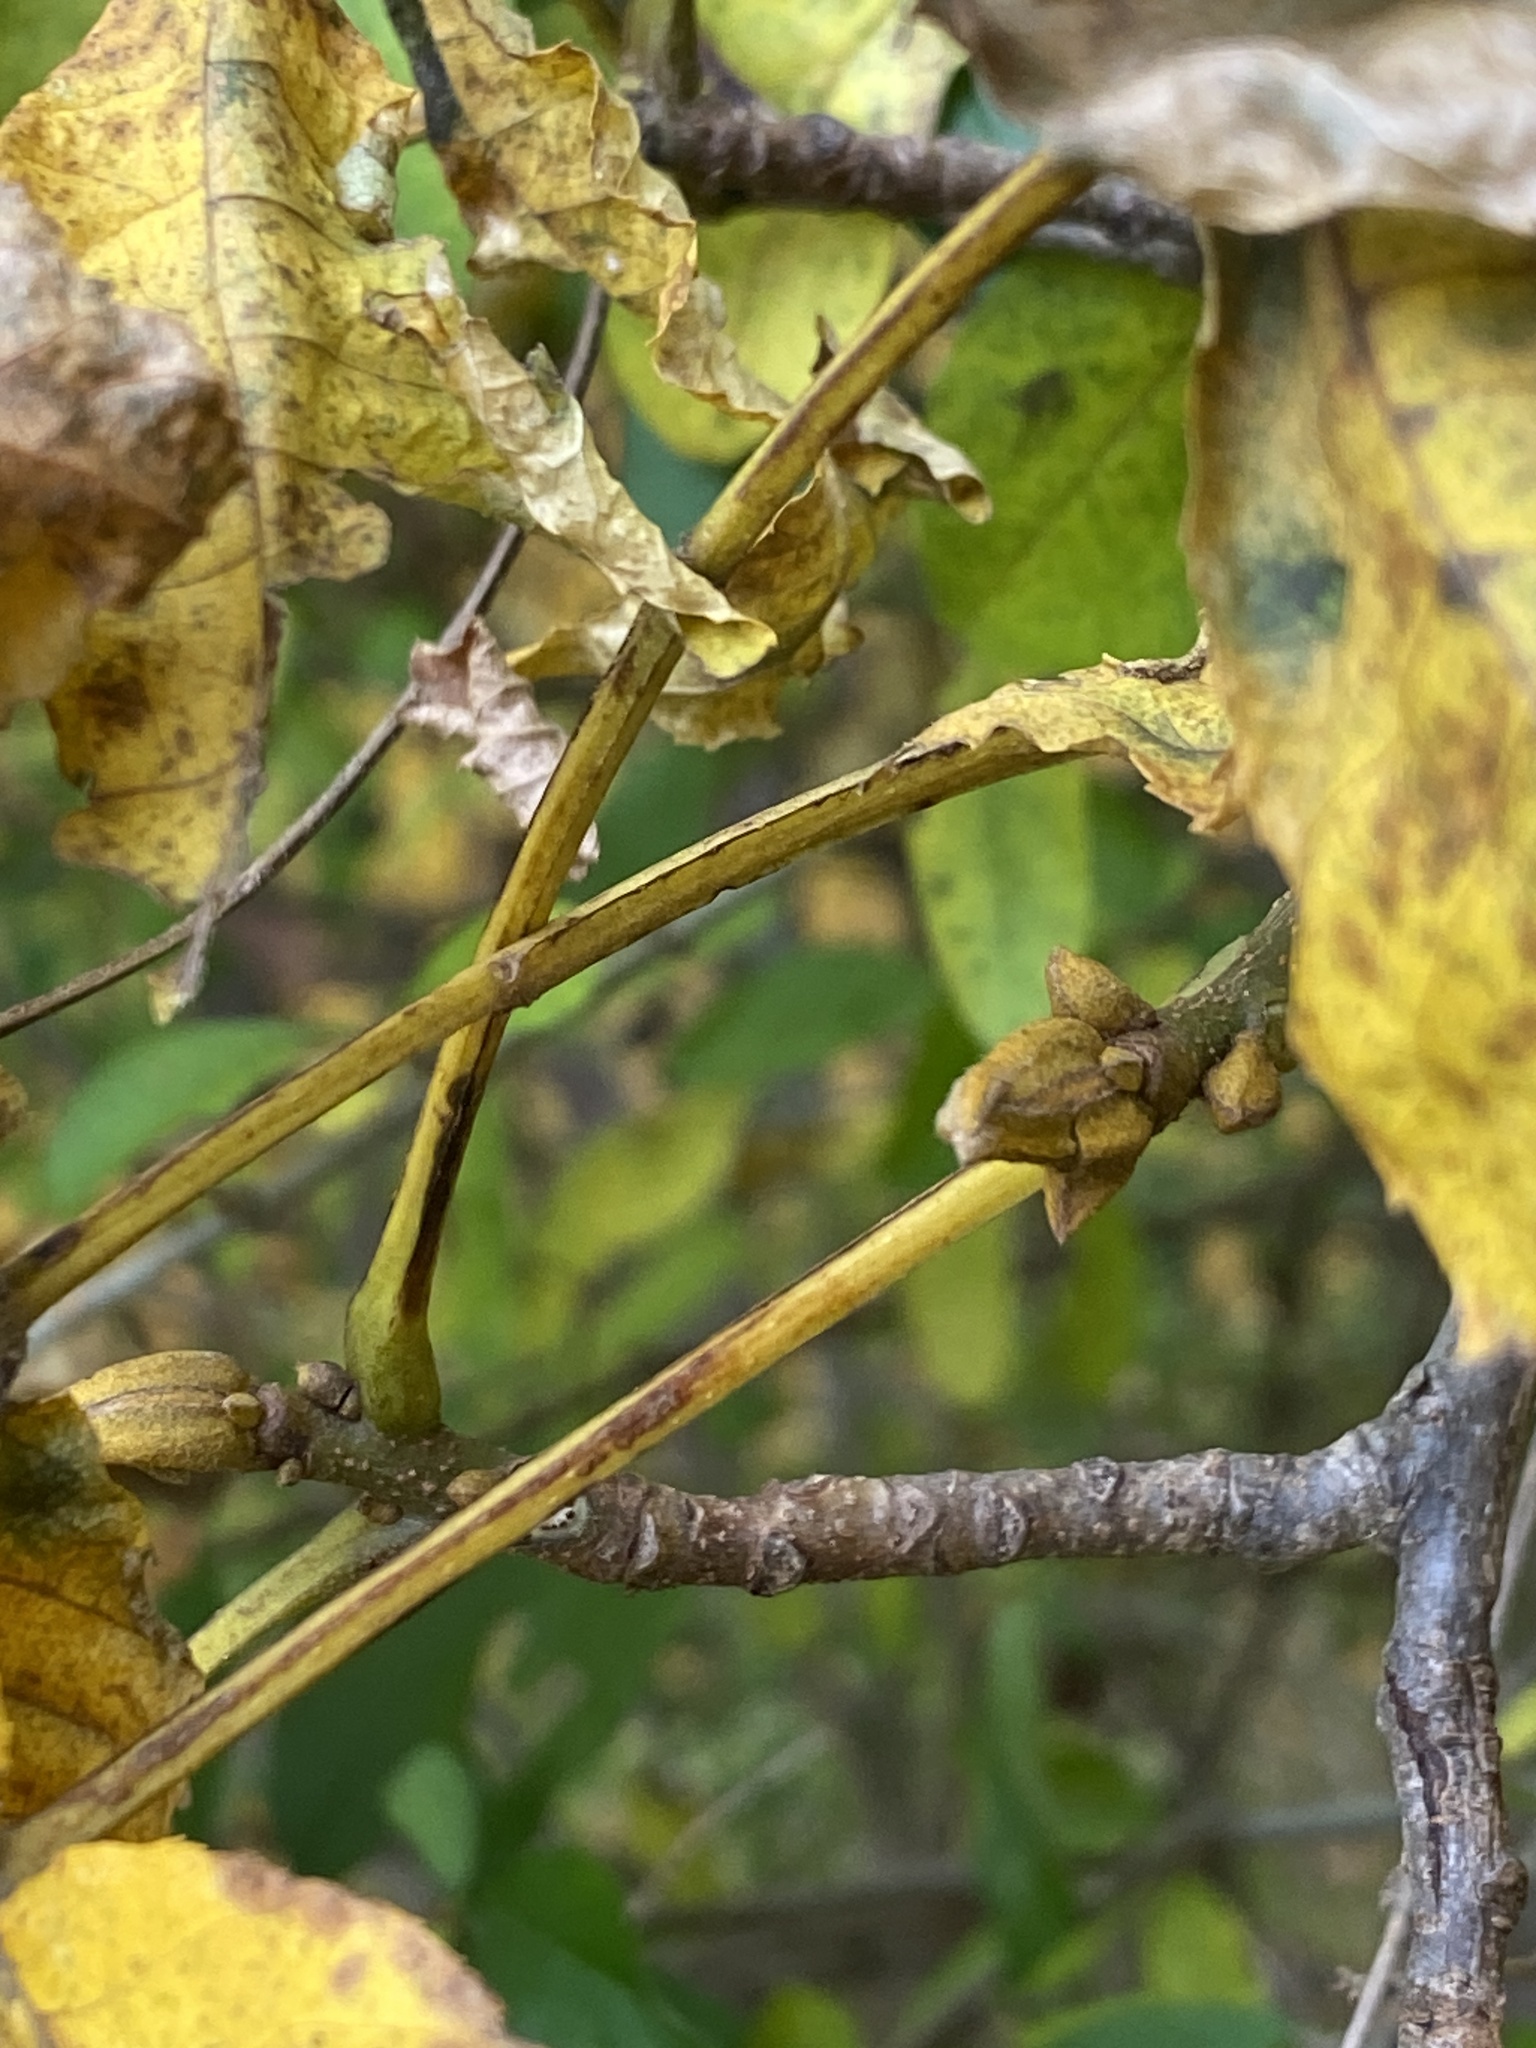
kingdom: Plantae
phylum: Tracheophyta
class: Magnoliopsida
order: Fagales
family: Juglandaceae
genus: Carya
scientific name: Carya cordiformis
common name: Bitternut hickory
